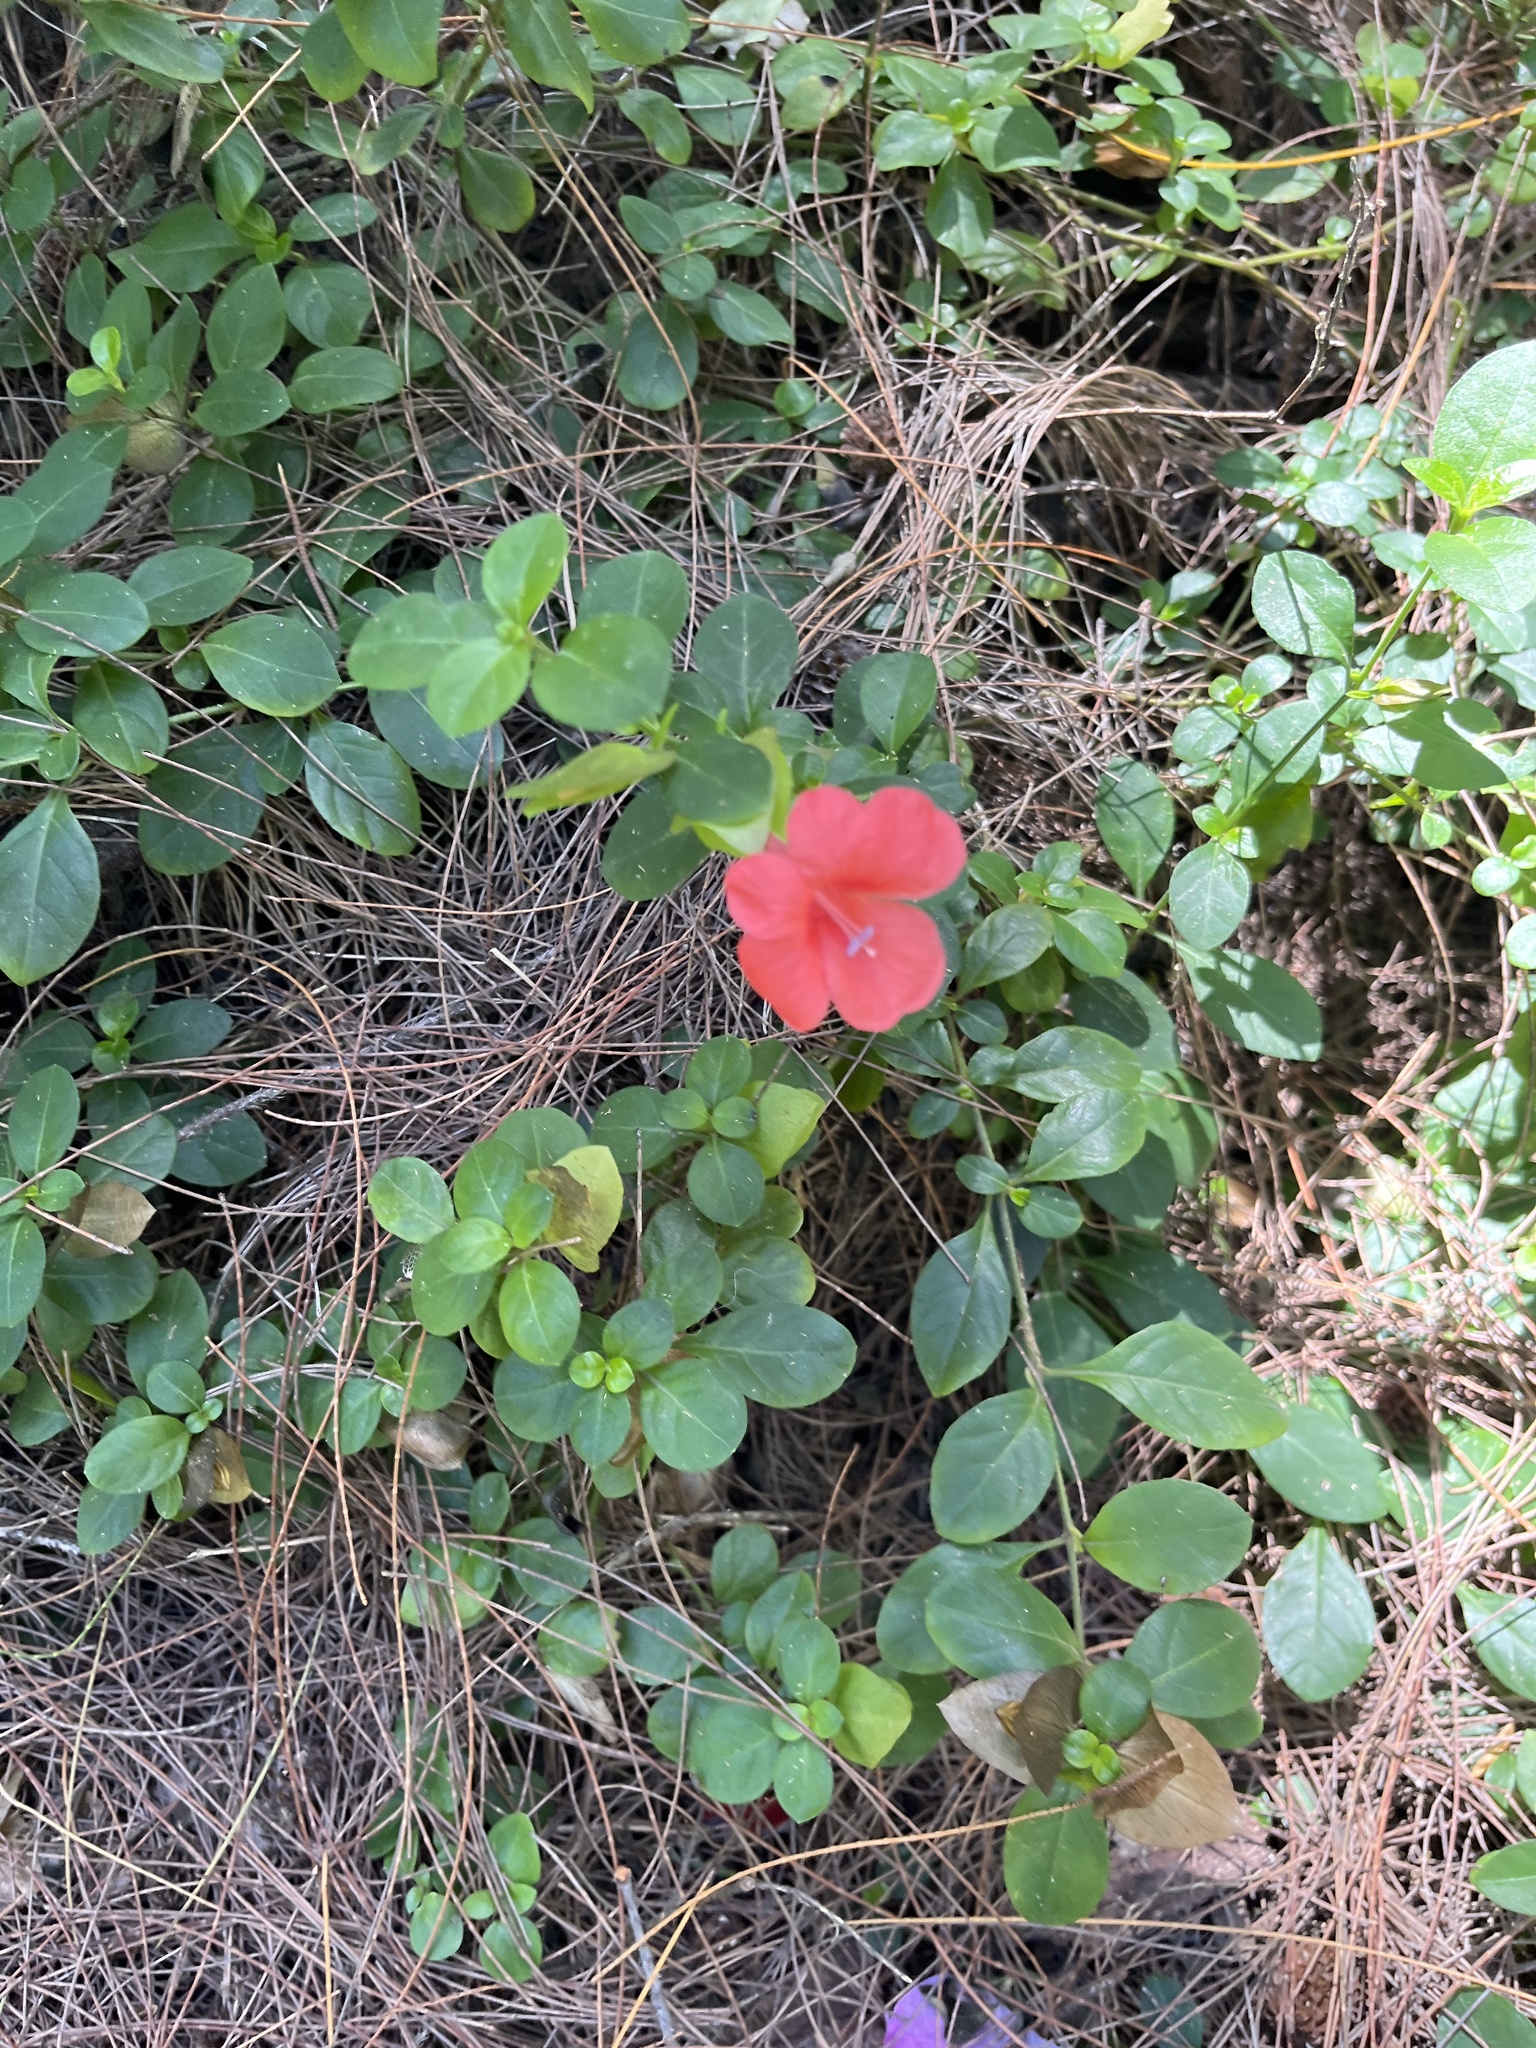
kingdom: Plantae
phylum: Tracheophyta
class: Magnoliopsida
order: Lamiales
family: Acanthaceae
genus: Barleria
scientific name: Barleria repens
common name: Pink-ruellia
